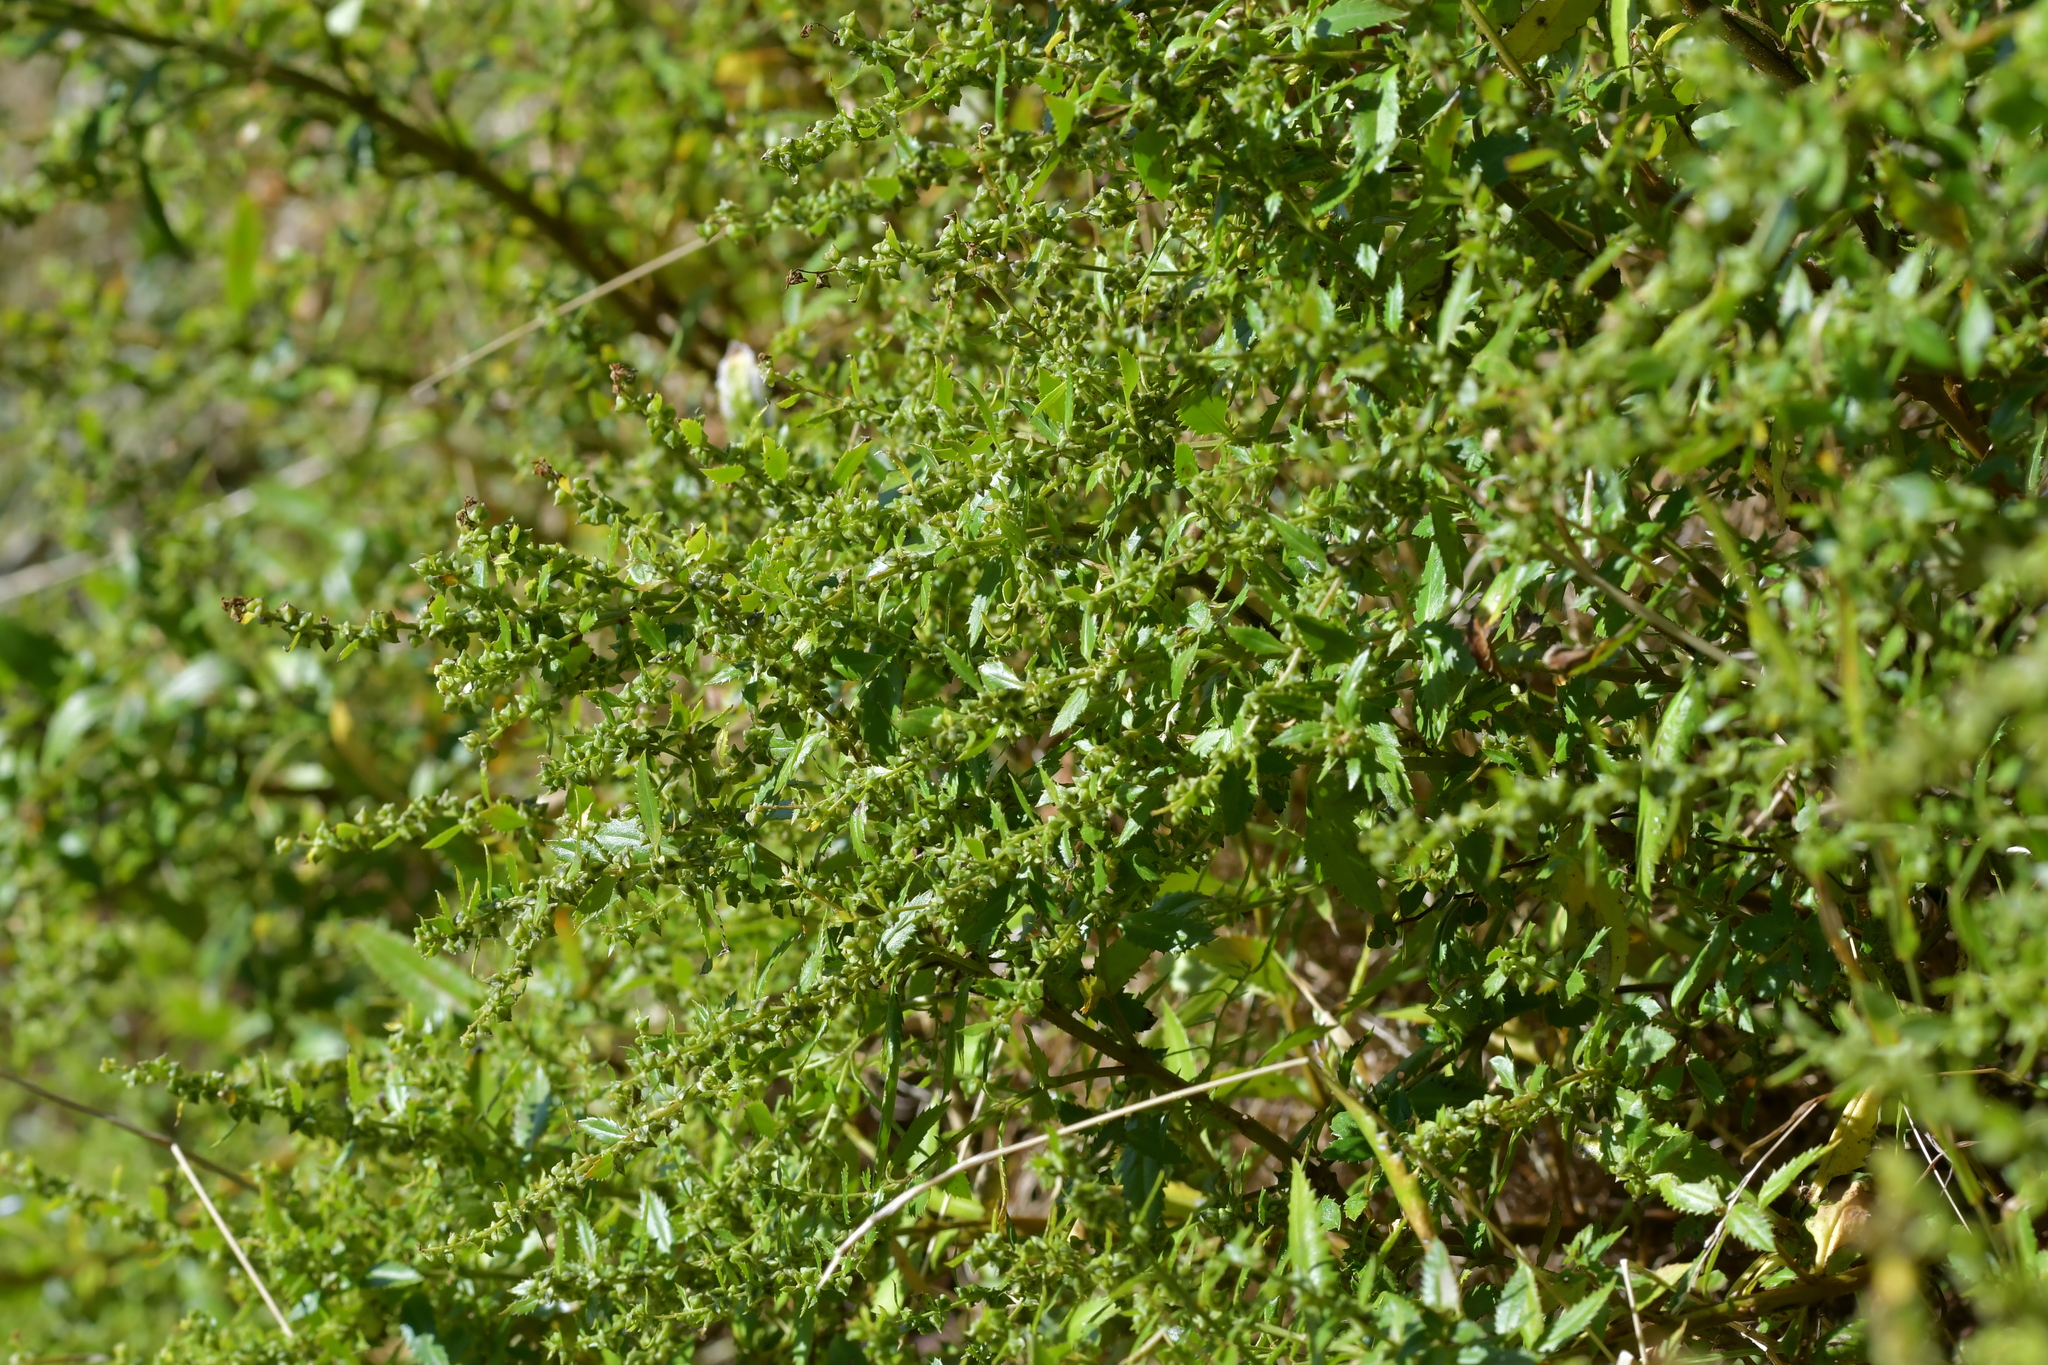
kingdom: Plantae
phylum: Tracheophyta
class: Magnoliopsida
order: Saxifragales
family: Haloragaceae
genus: Haloragis
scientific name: Haloragis erecta
